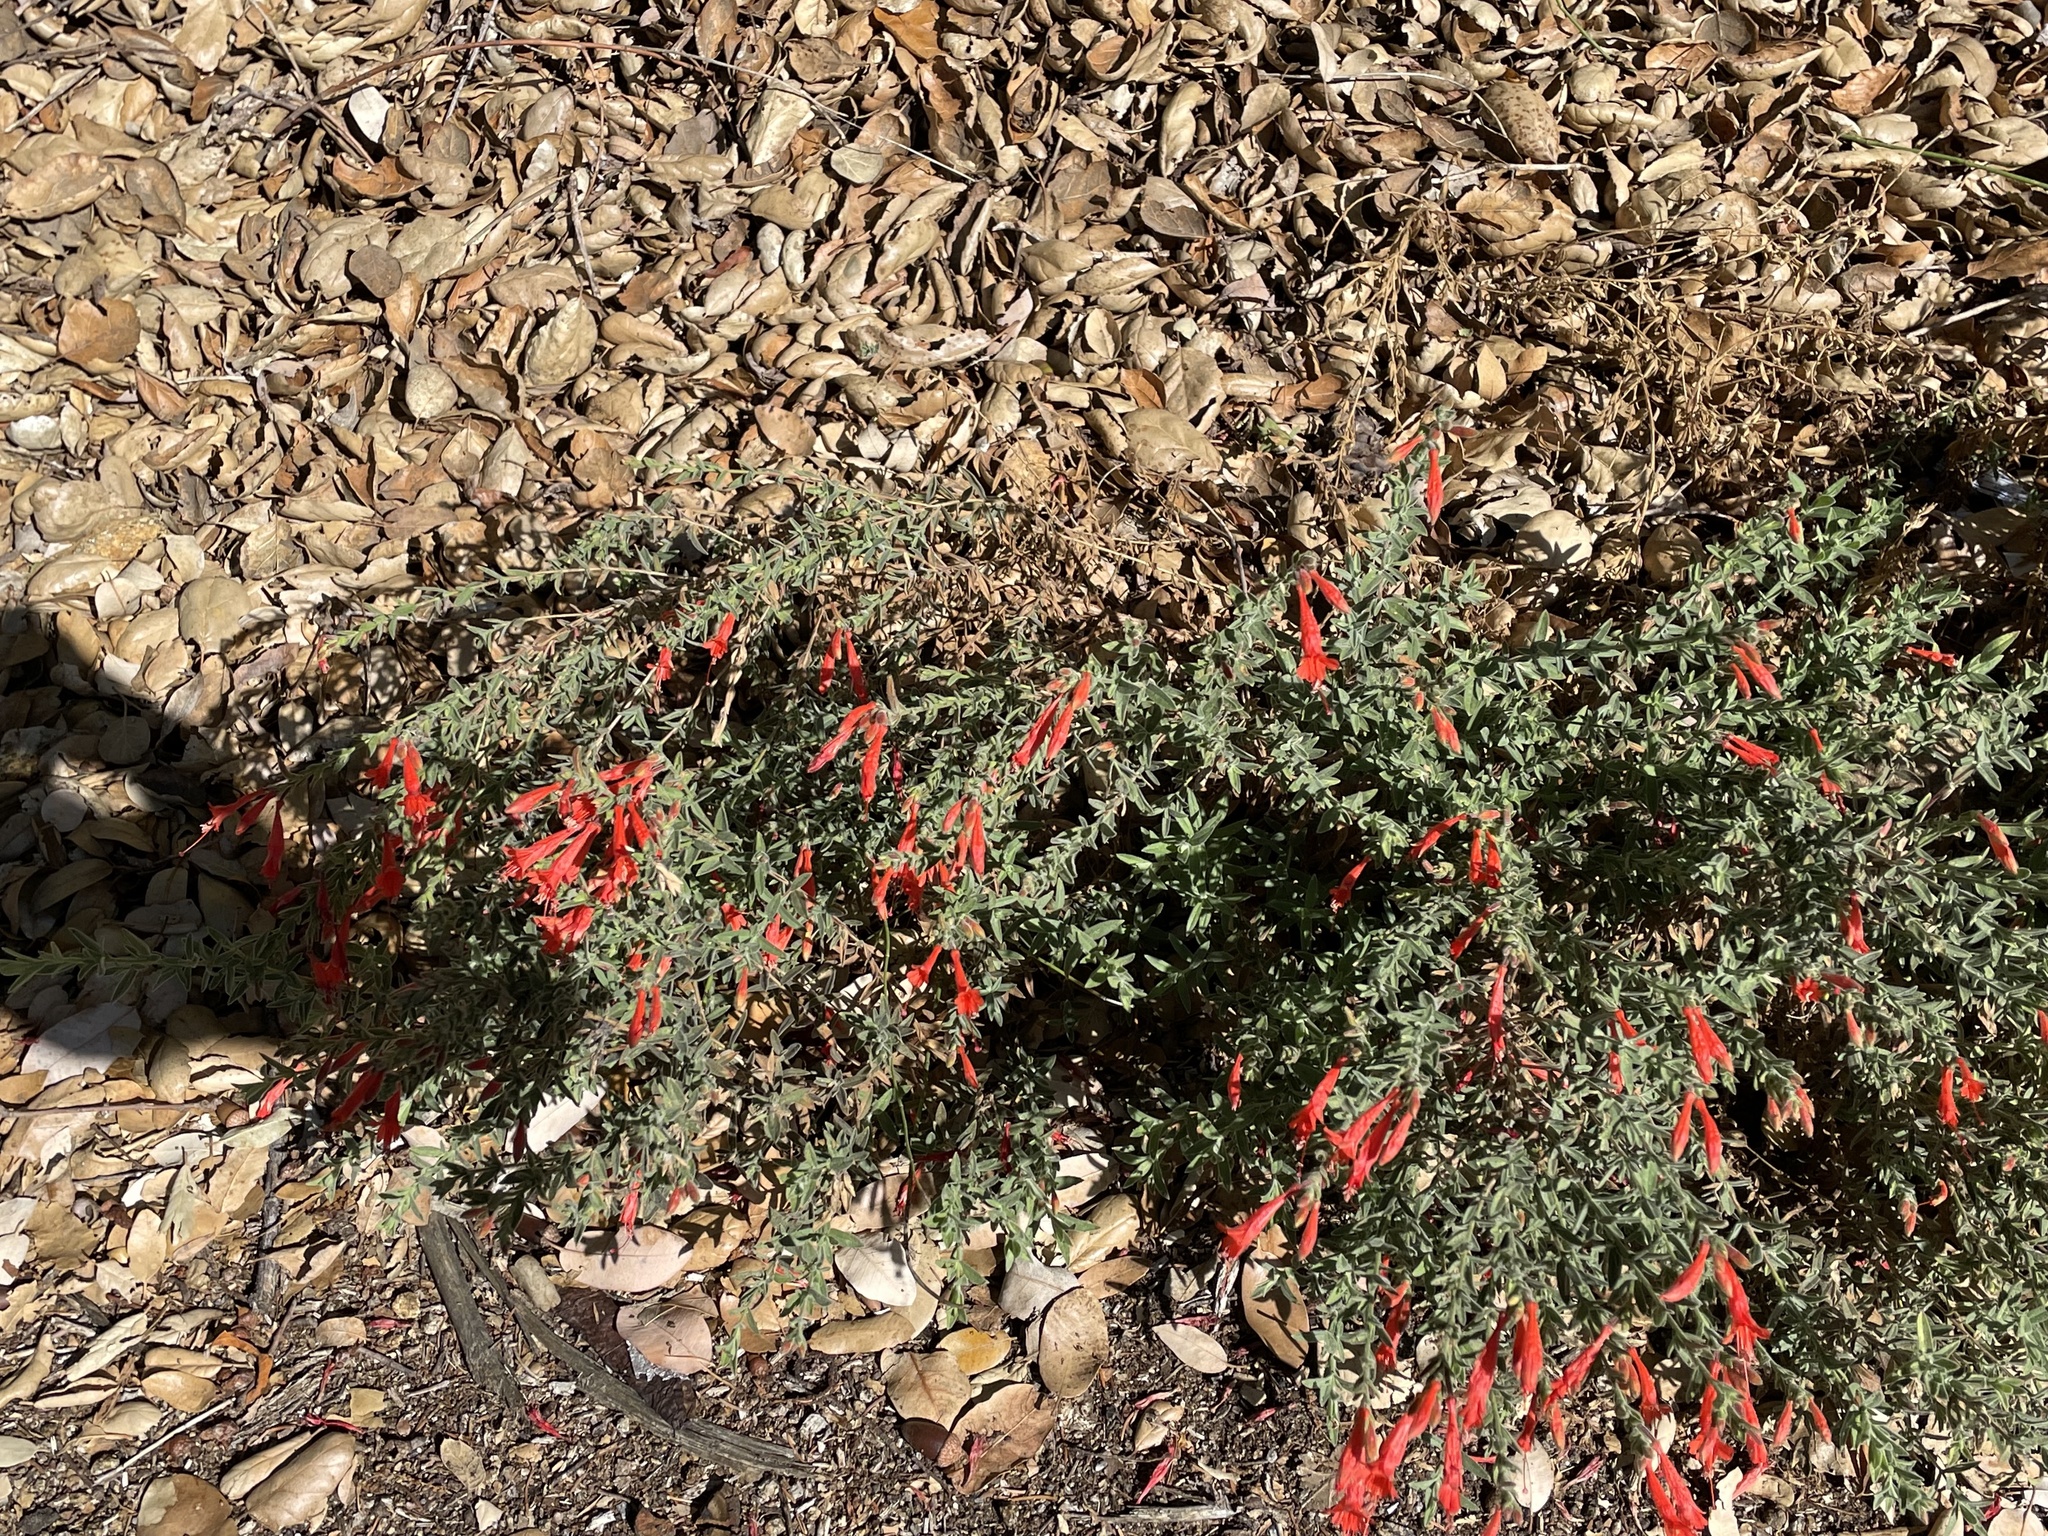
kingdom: Plantae
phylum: Tracheophyta
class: Magnoliopsida
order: Myrtales
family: Onagraceae
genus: Epilobium
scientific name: Epilobium canum
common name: California-fuchsia
